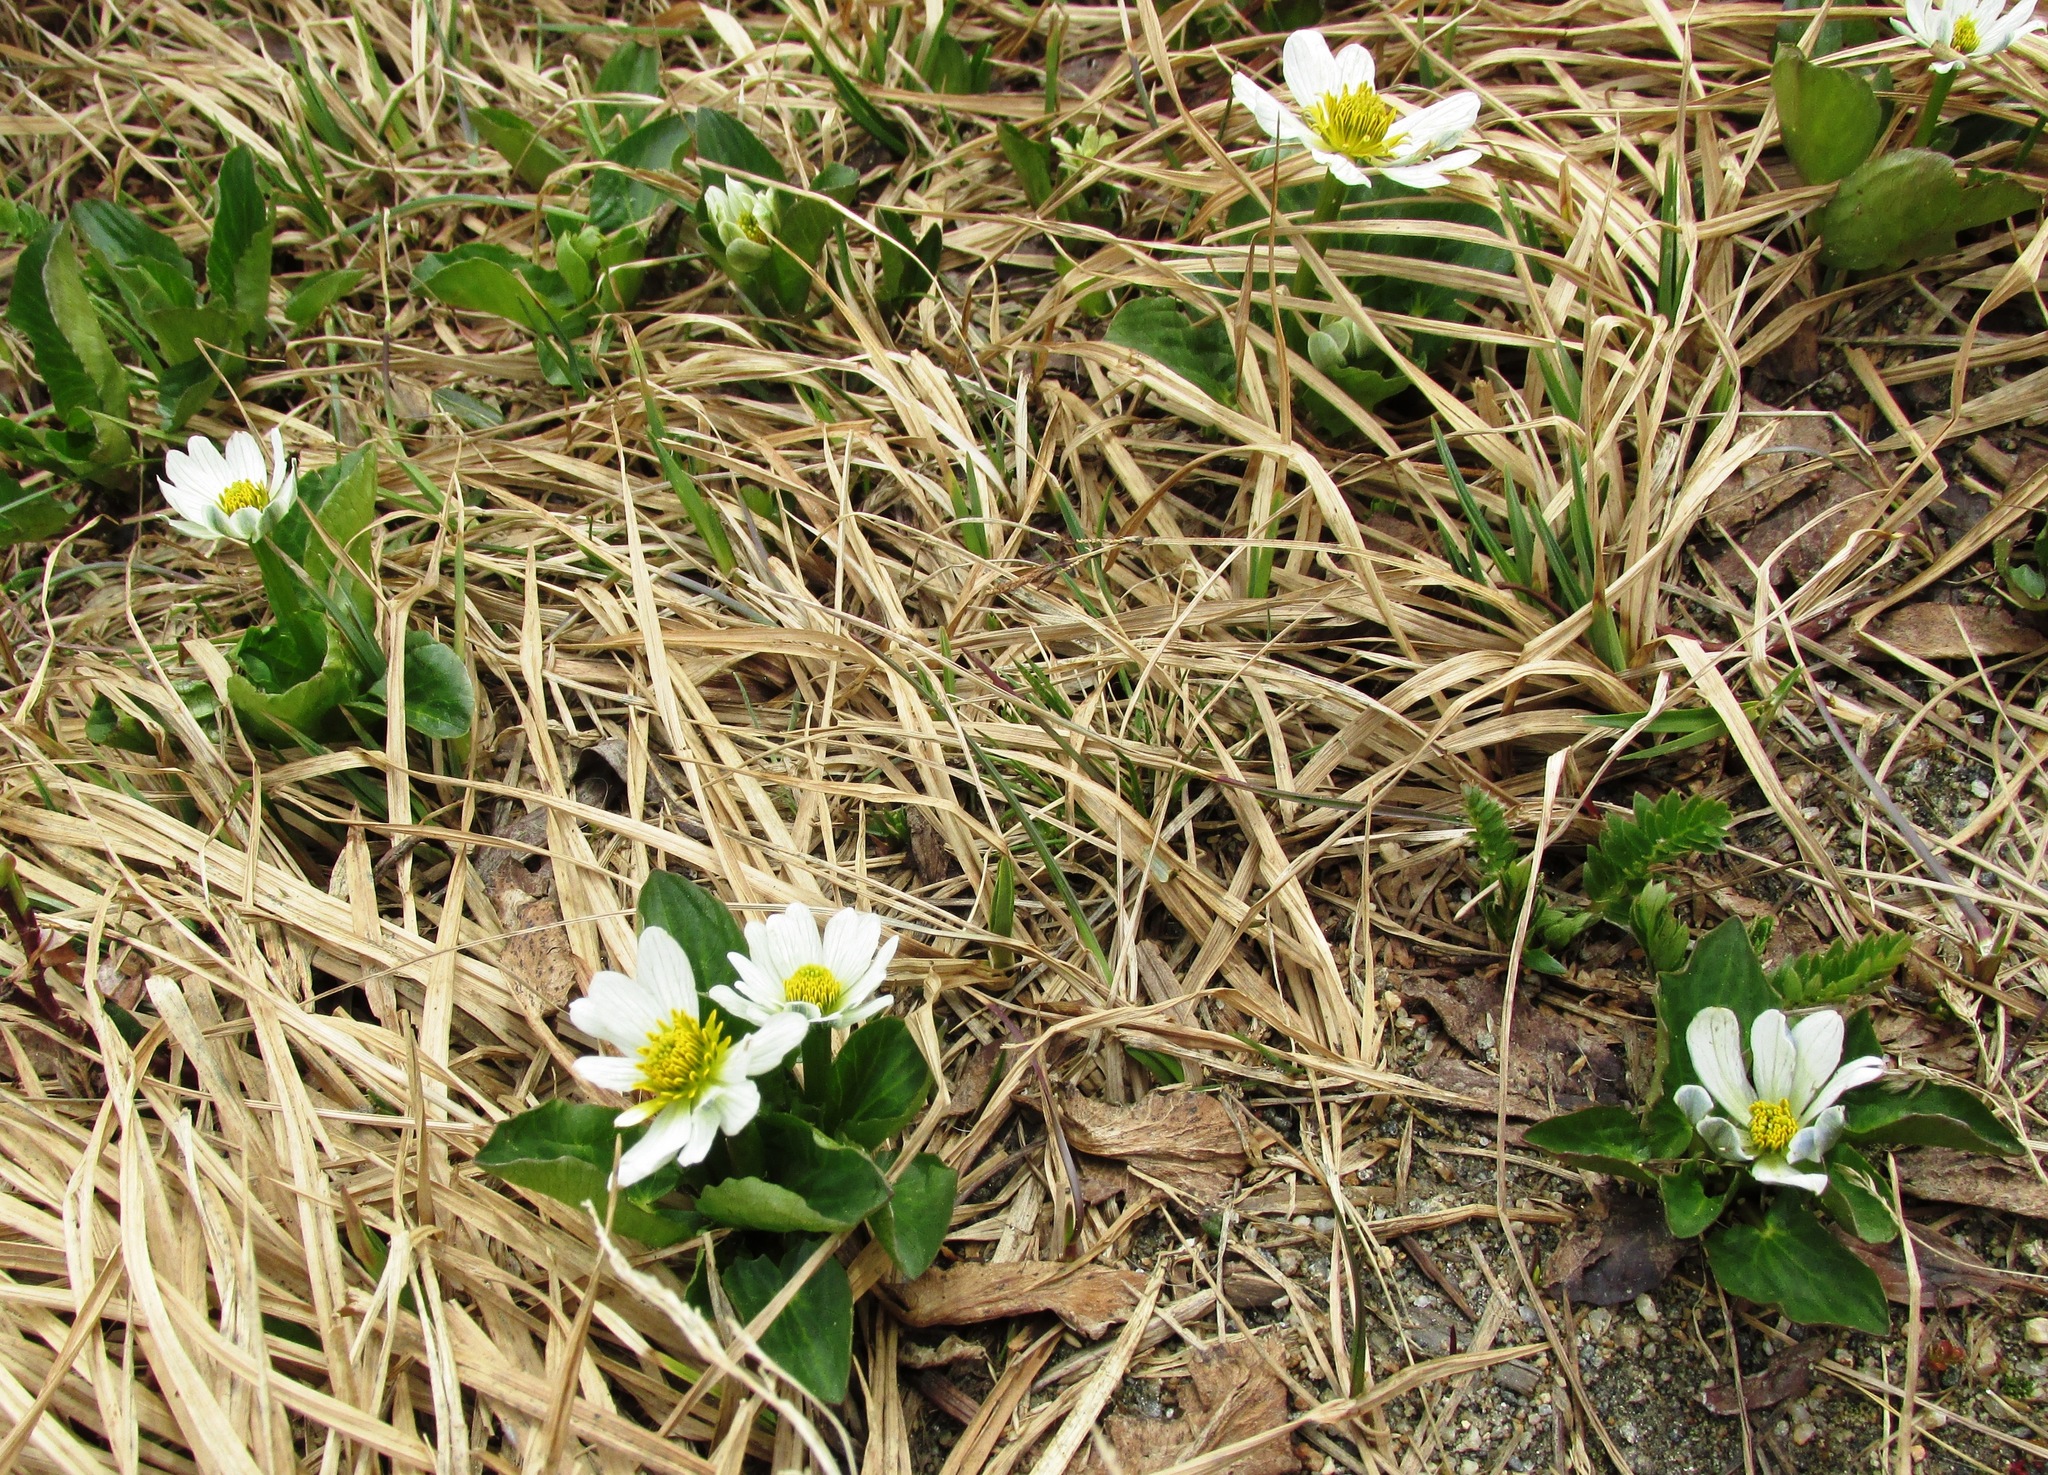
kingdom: Plantae
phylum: Tracheophyta
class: Magnoliopsida
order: Ranunculales
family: Ranunculaceae
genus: Caltha
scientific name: Caltha leptosepala
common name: Elkslip
